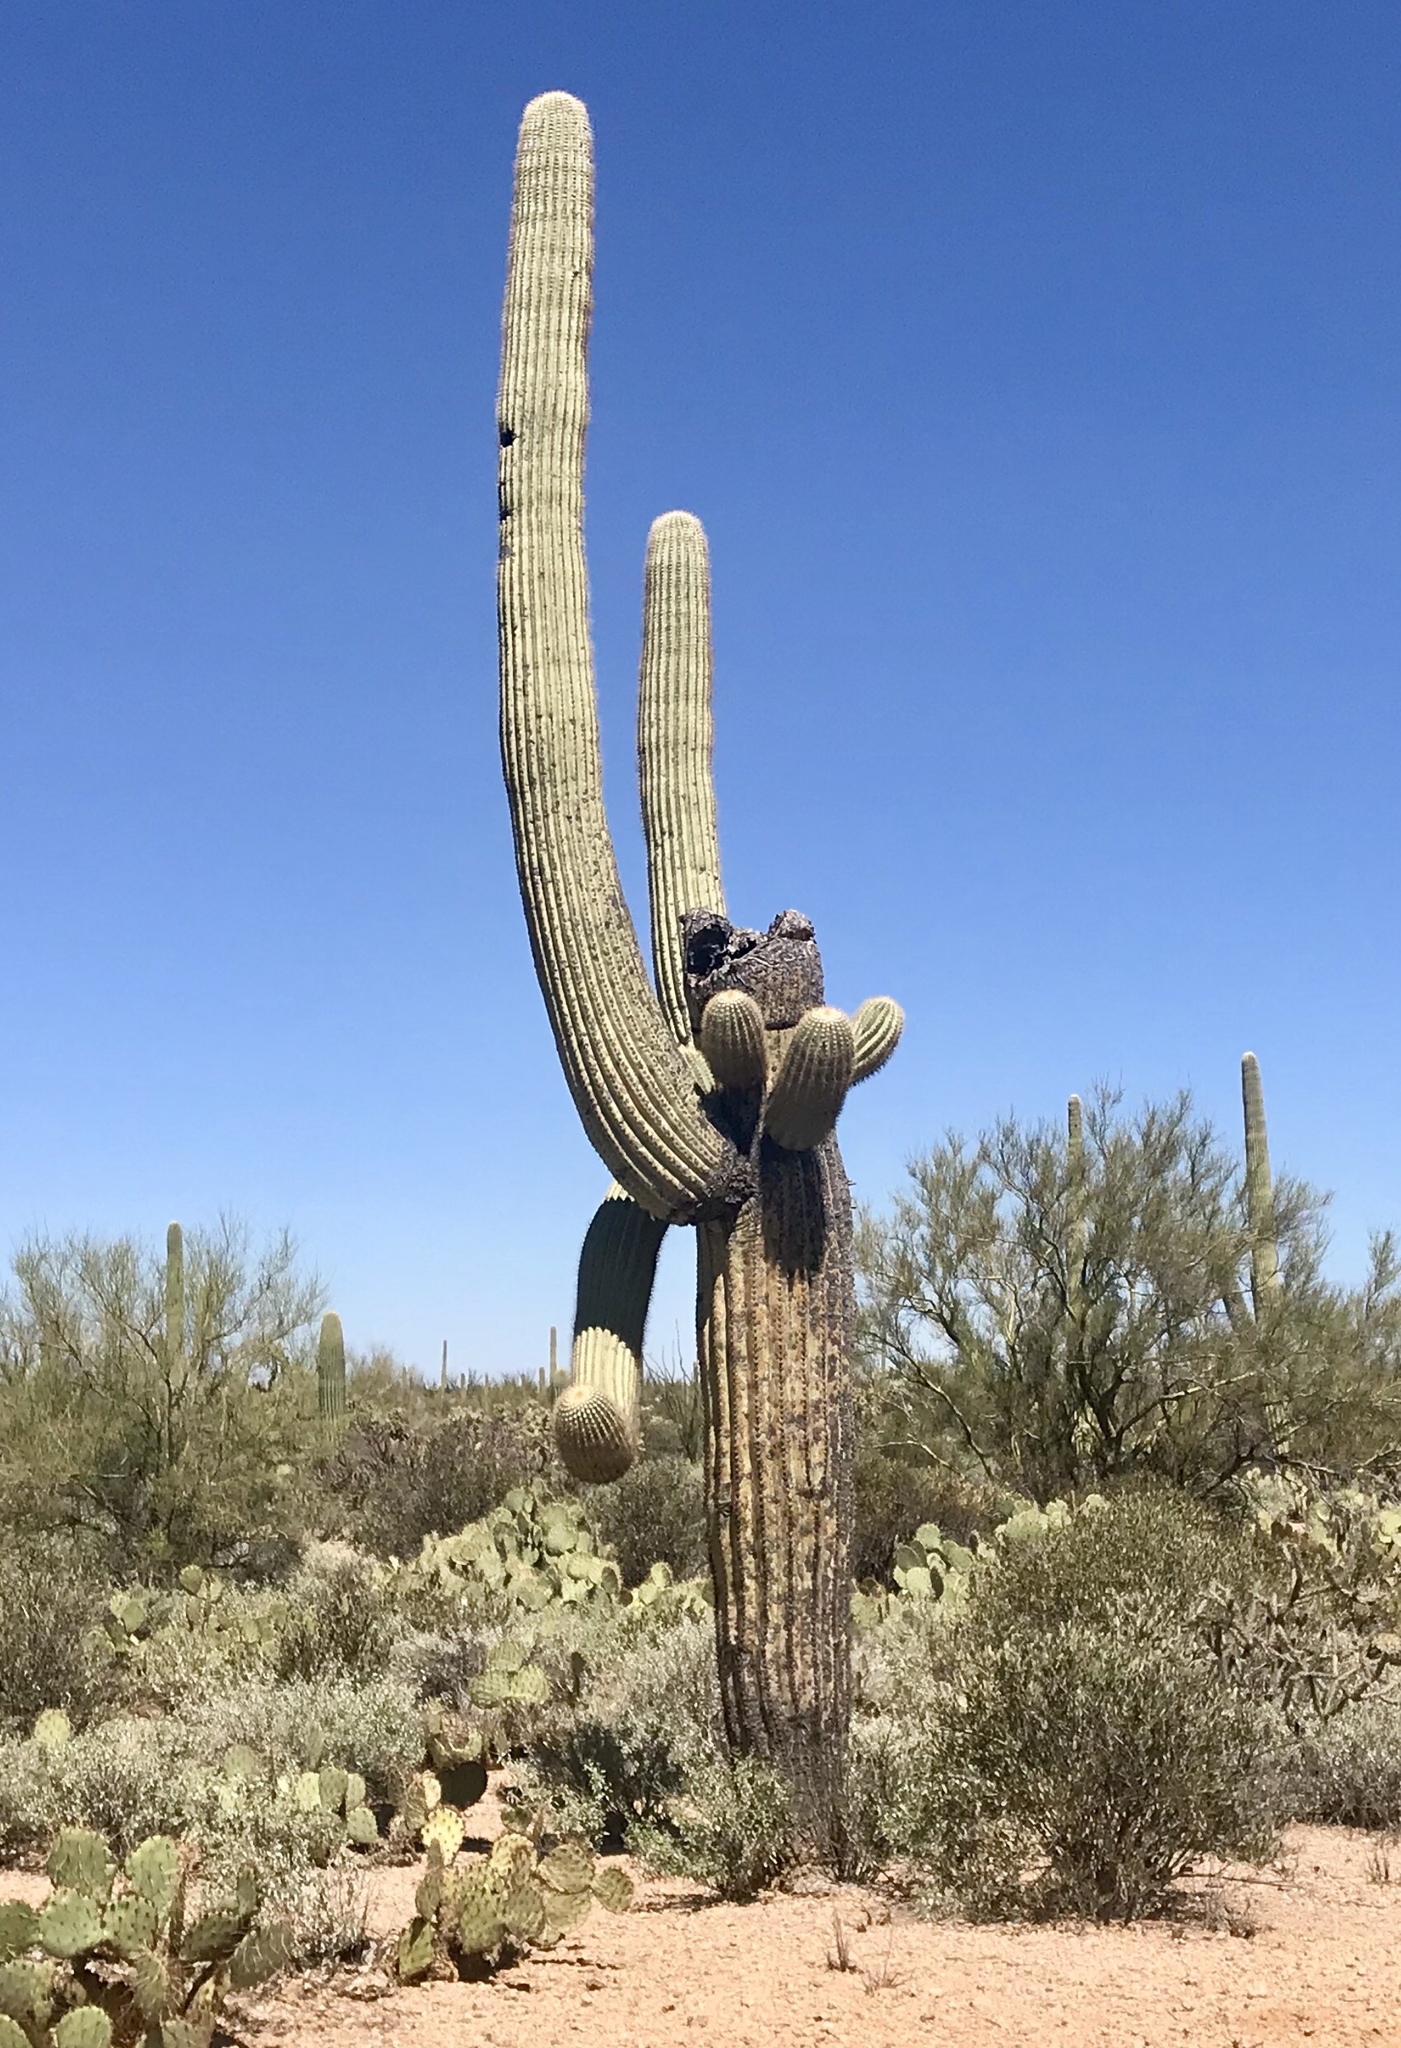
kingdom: Plantae
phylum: Tracheophyta
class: Magnoliopsida
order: Caryophyllales
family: Cactaceae
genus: Carnegiea
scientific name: Carnegiea gigantea
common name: Saguaro
